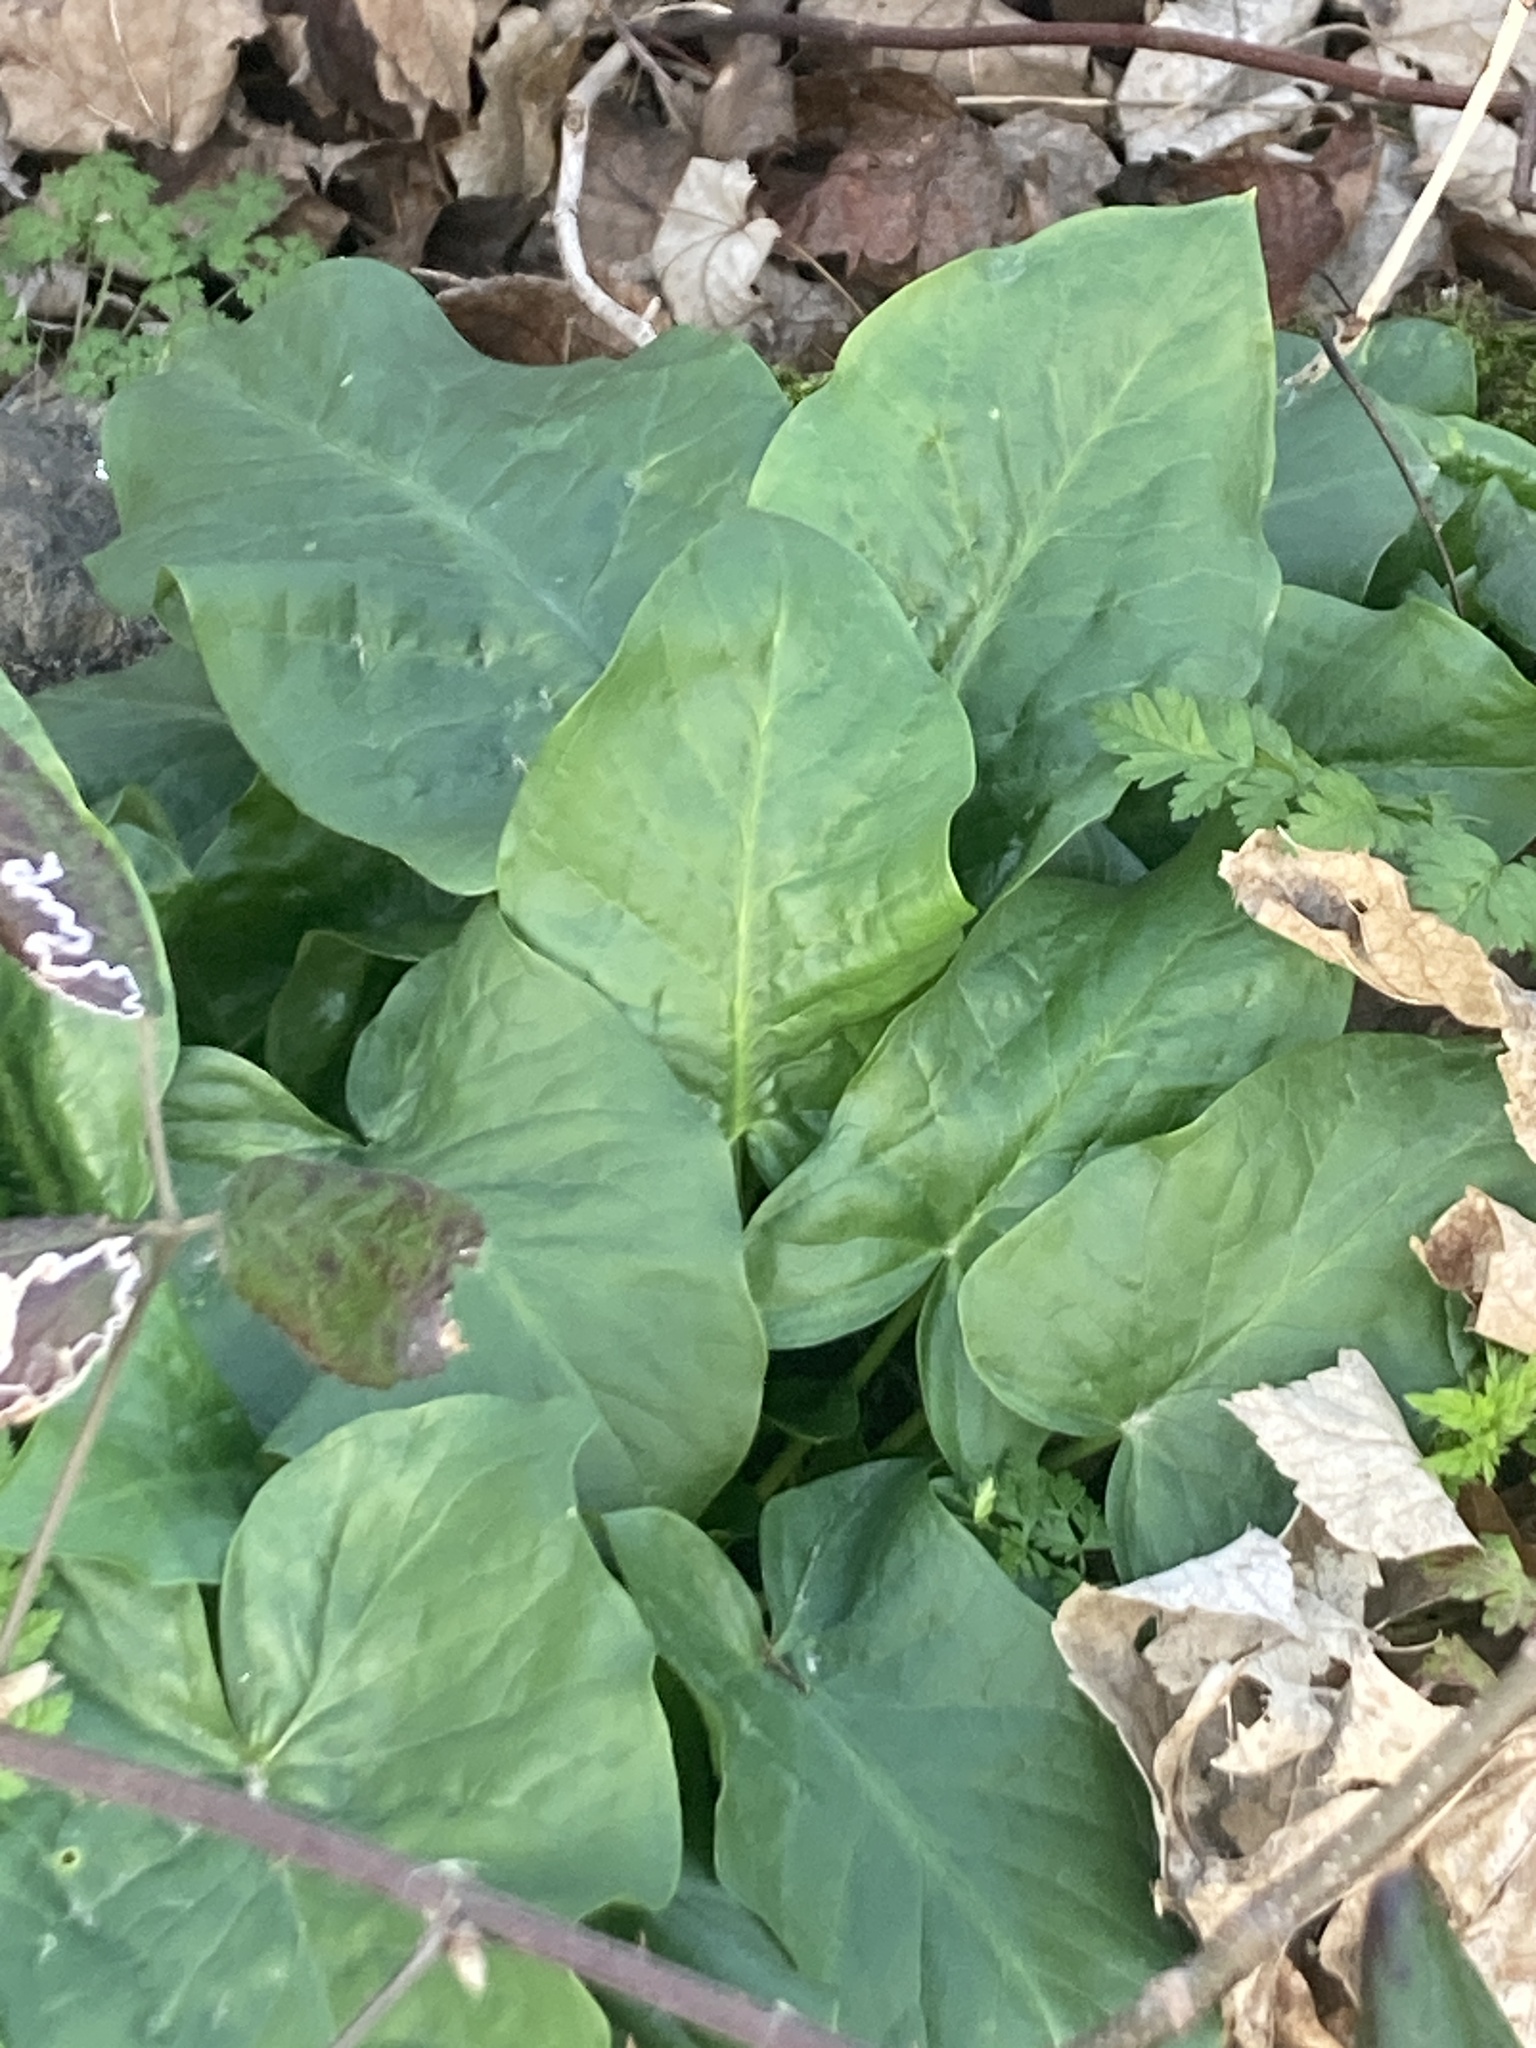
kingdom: Plantae
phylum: Tracheophyta
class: Liliopsida
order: Alismatales
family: Araceae
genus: Arum
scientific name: Arum maculatum
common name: Lords-and-ladies
